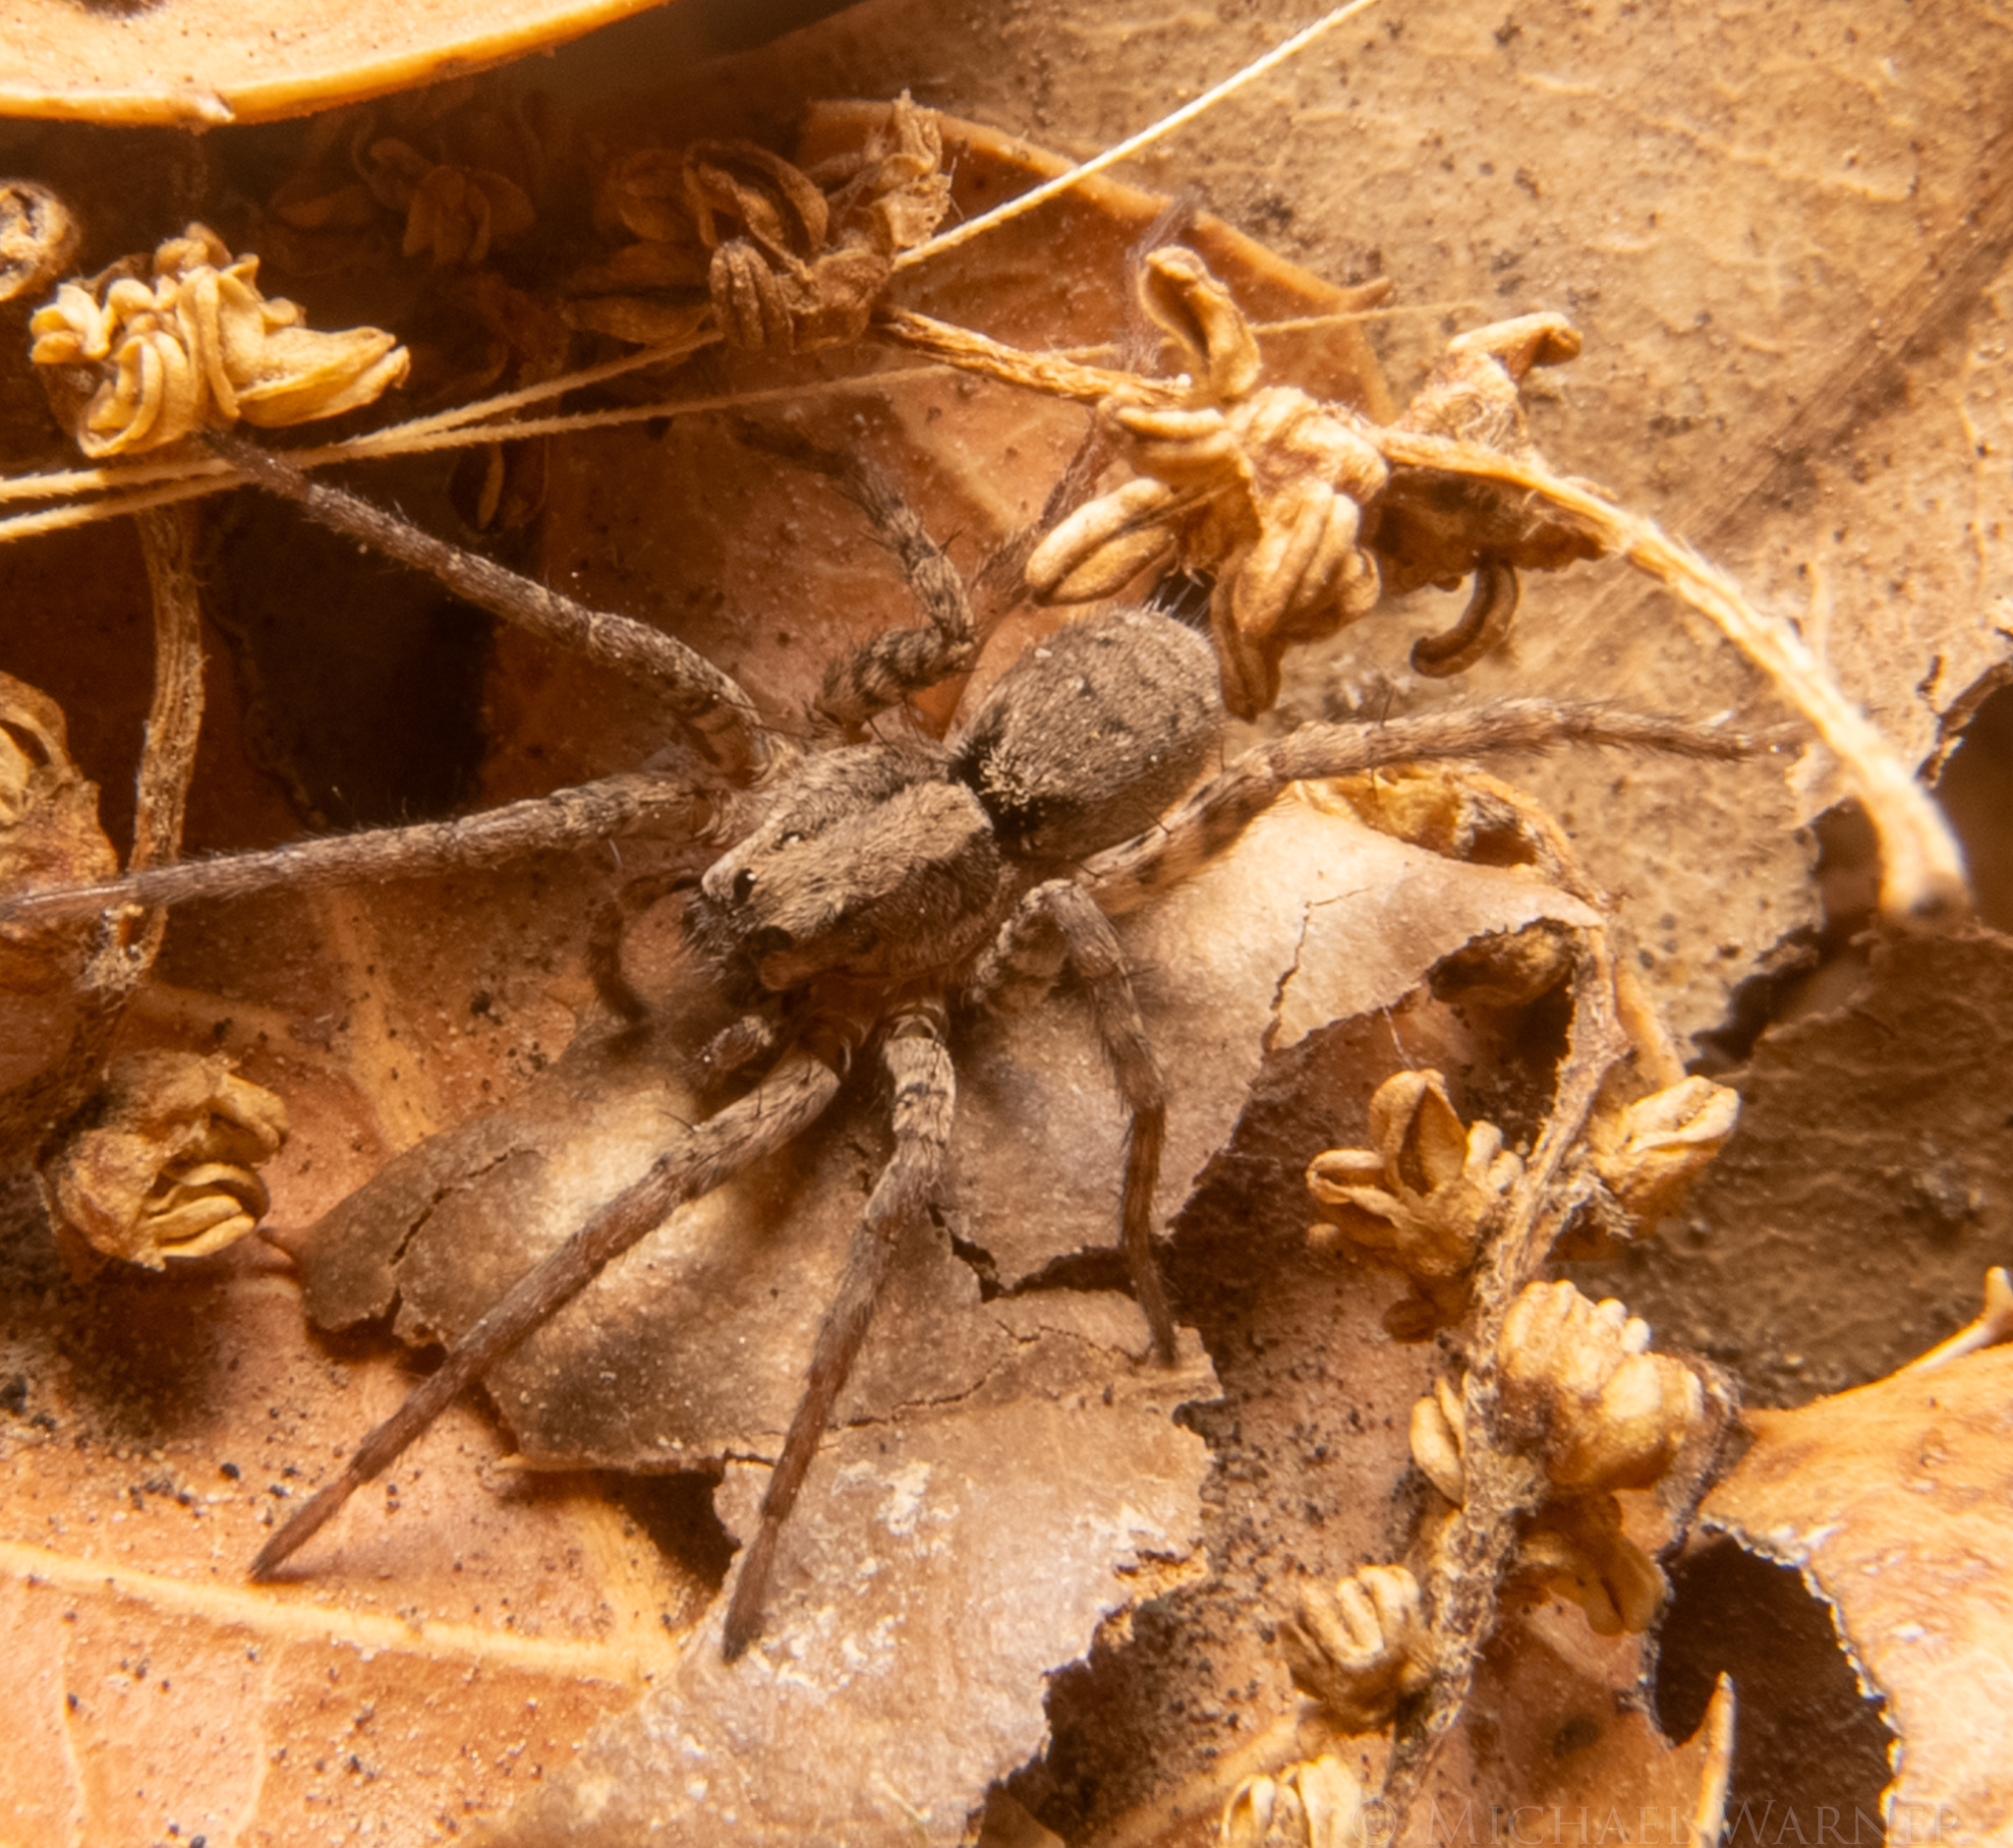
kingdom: Animalia
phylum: Arthropoda
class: Arachnida
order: Araneae
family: Lycosidae
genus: Alopecosa
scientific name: Alopecosa kochi
